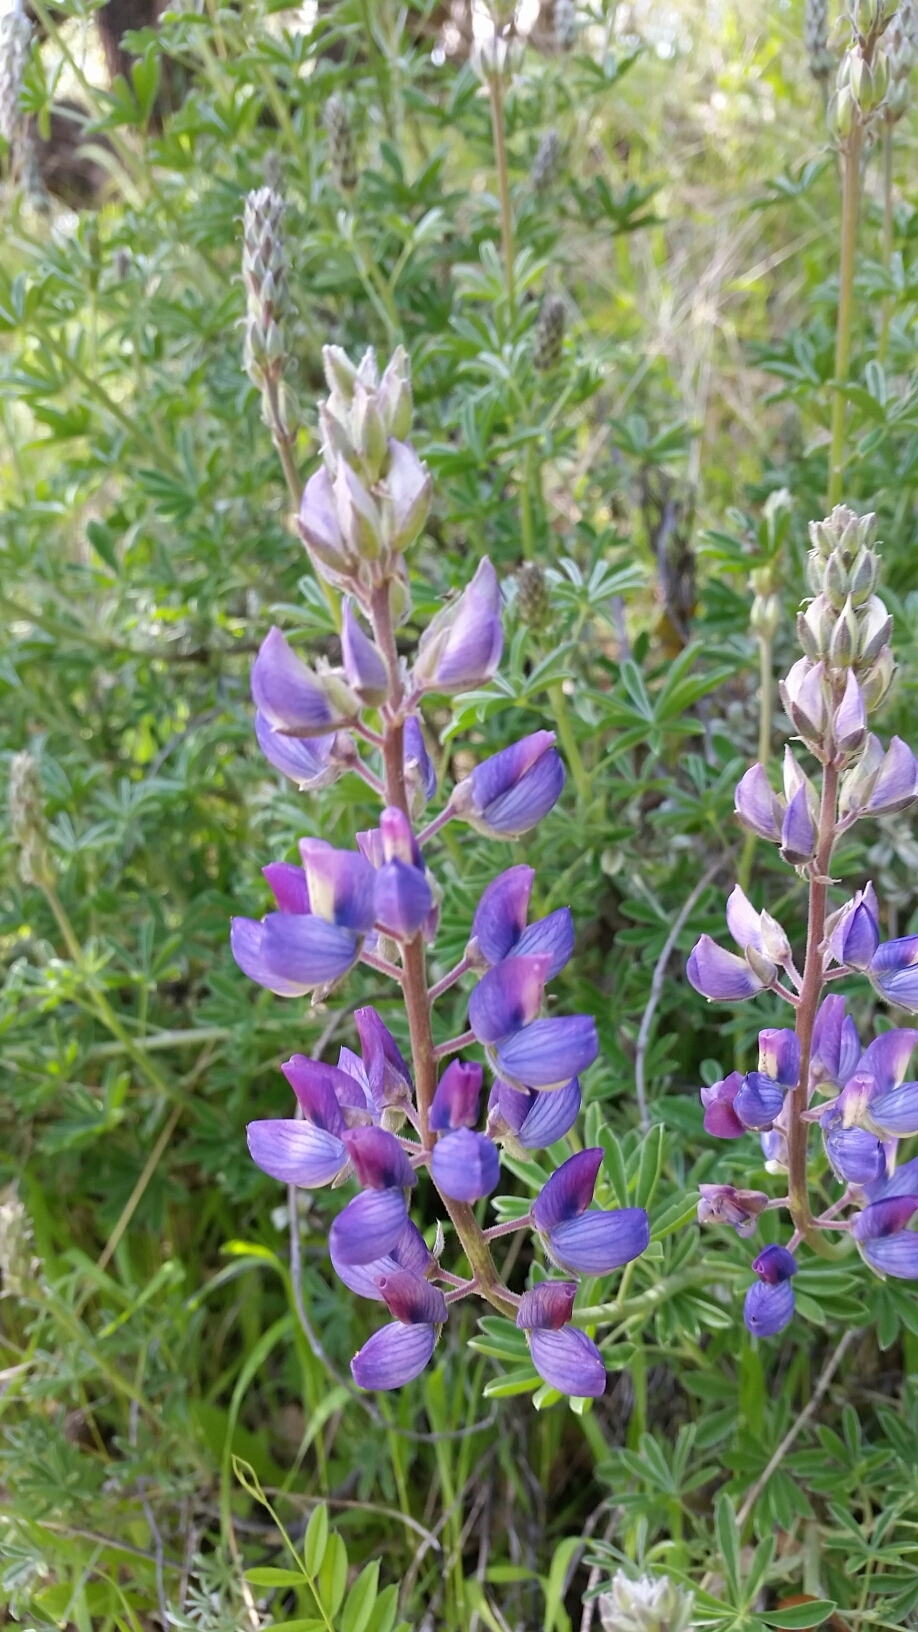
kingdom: Plantae
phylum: Tracheophyta
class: Magnoliopsida
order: Fabales
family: Fabaceae
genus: Lupinus
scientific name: Lupinus albifrons
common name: Foothill lupine
